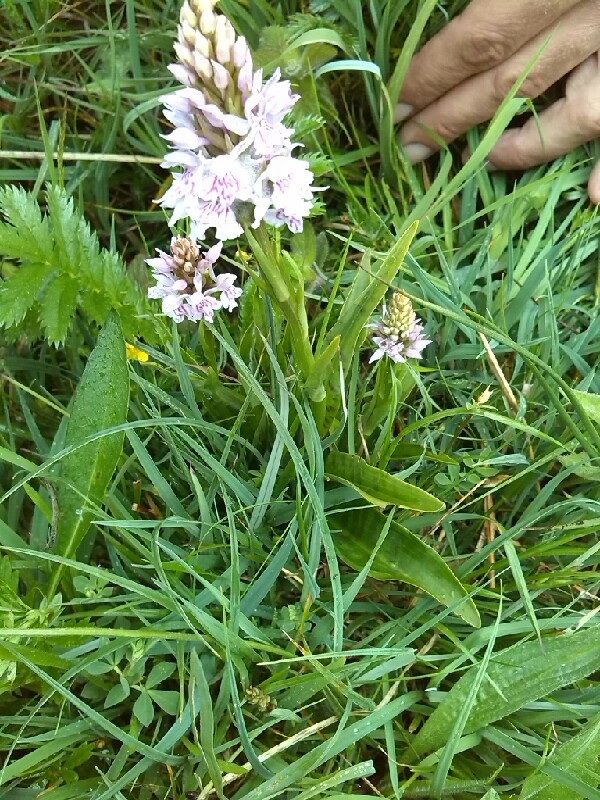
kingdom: Plantae
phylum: Tracheophyta
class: Liliopsida
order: Asparagales
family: Orchidaceae
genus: Dactylorhiza
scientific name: Dactylorhiza maculata
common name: Heath spotted-orchid
